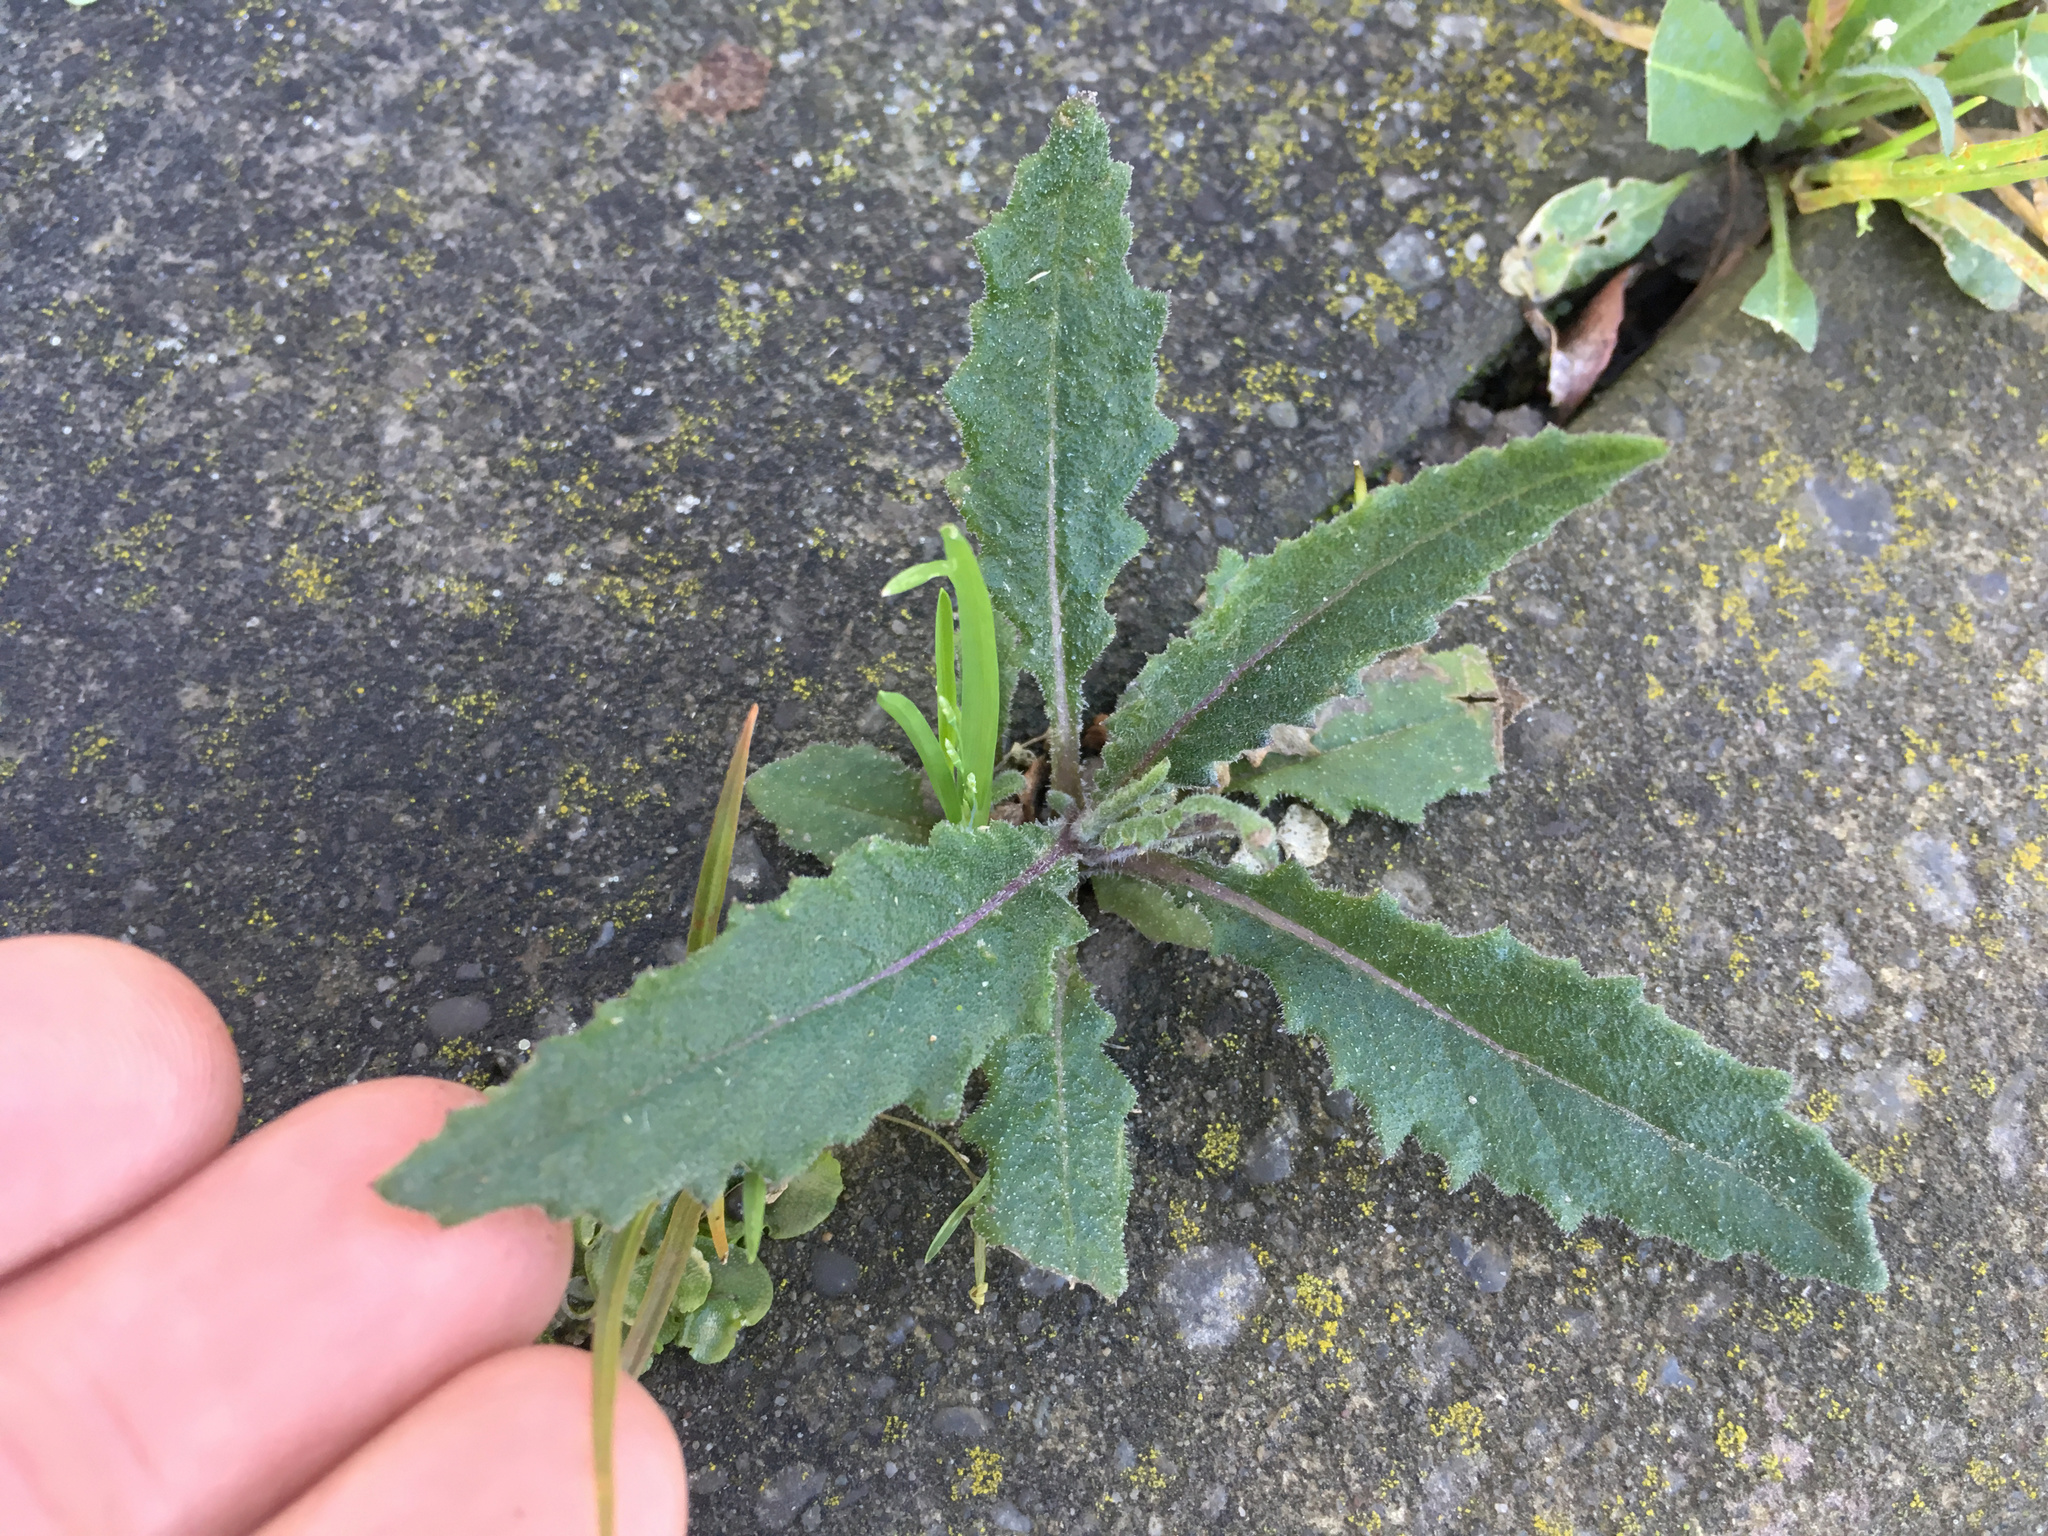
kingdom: Plantae
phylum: Tracheophyta
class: Magnoliopsida
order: Asterales
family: Asteraceae
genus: Senecio
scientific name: Senecio minimus
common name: Toothed fireweed
